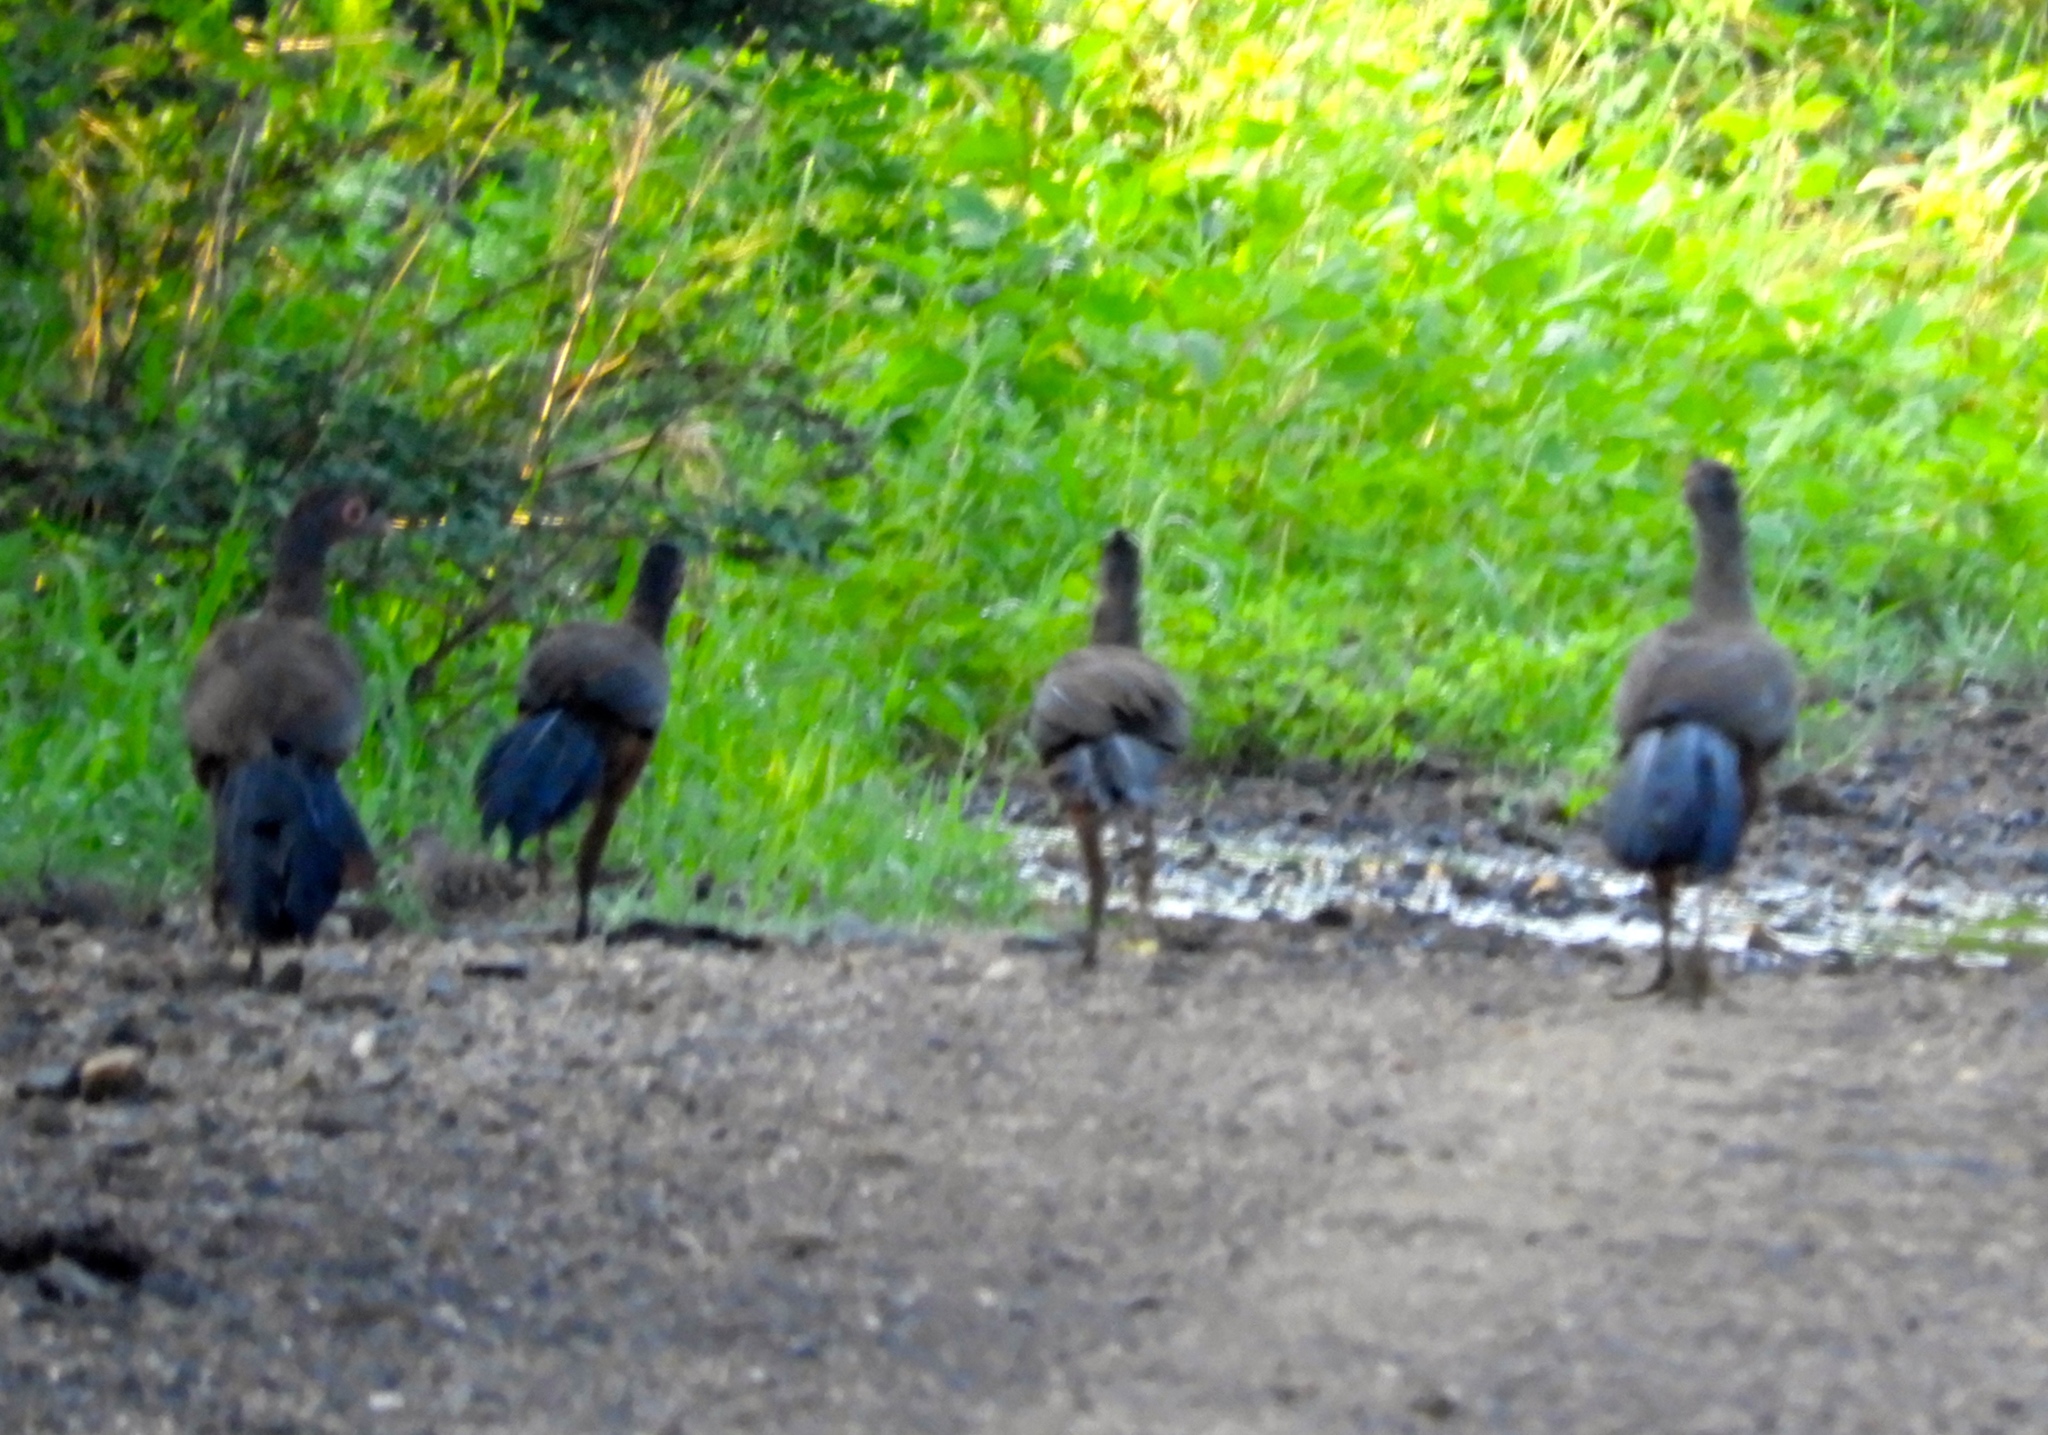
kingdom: Animalia
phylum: Chordata
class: Aves
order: Galliformes
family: Cracidae
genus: Ortalis
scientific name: Ortalis wagleri
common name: Rufous-bellied chachalaca
